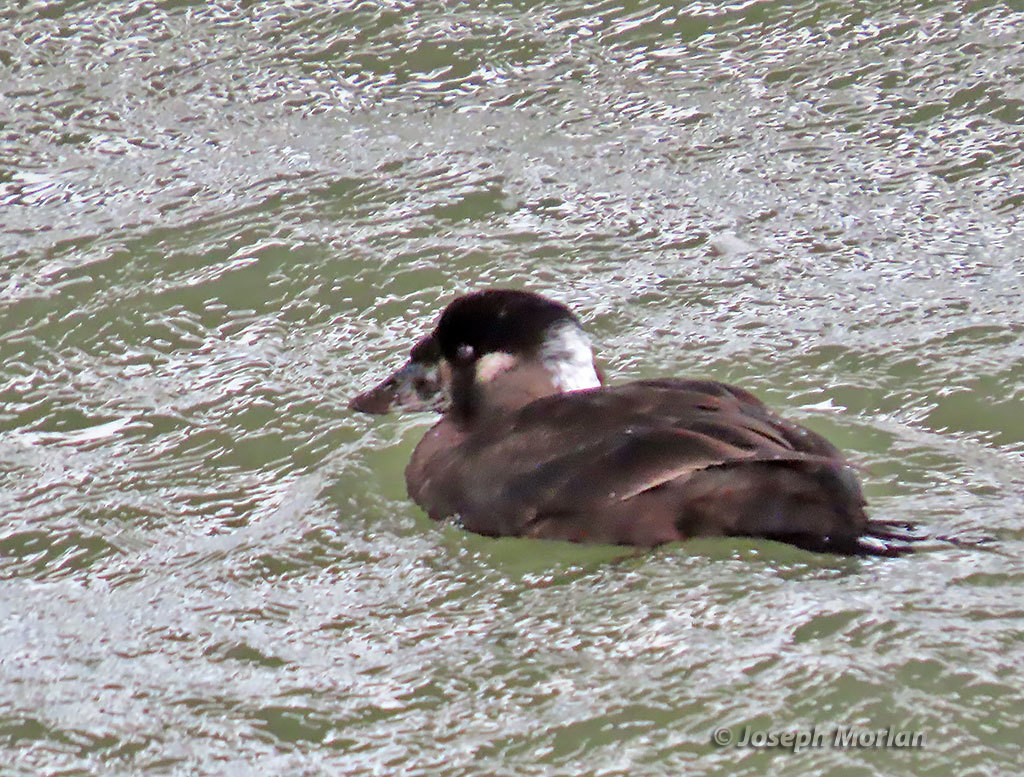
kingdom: Animalia
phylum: Chordata
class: Aves
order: Anseriformes
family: Anatidae
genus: Melanitta
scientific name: Melanitta perspicillata
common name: Surf scoter
